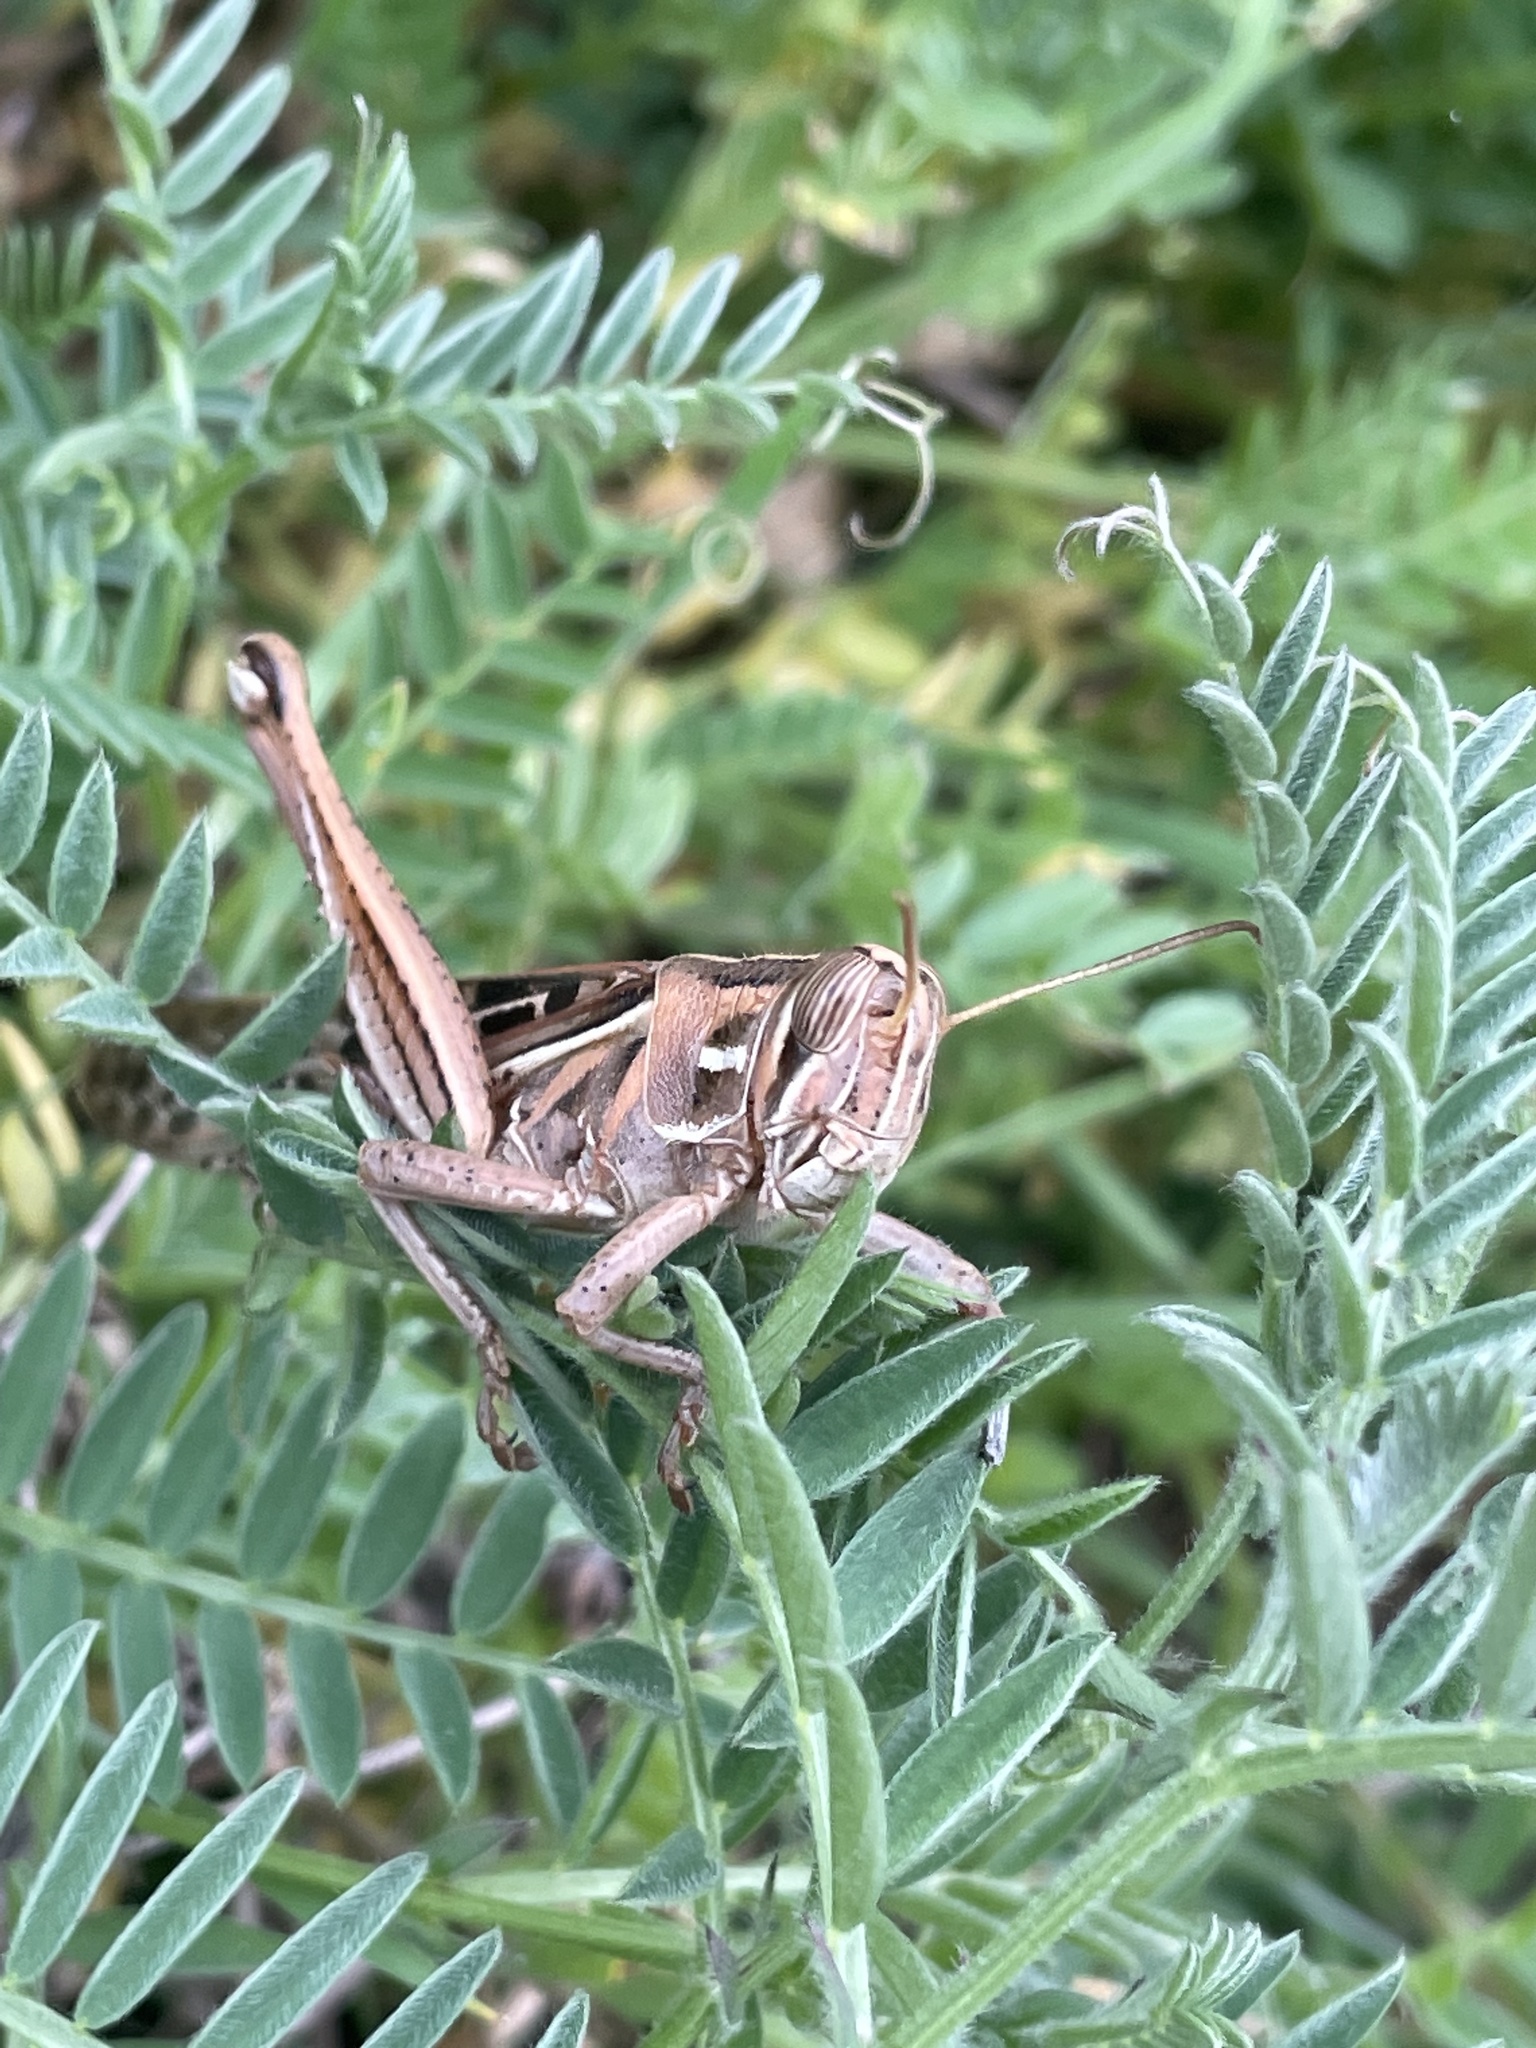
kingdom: Animalia
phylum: Arthropoda
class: Insecta
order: Orthoptera
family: Acrididae
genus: Schistocerca
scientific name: Schistocerca americana
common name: American bird locust
